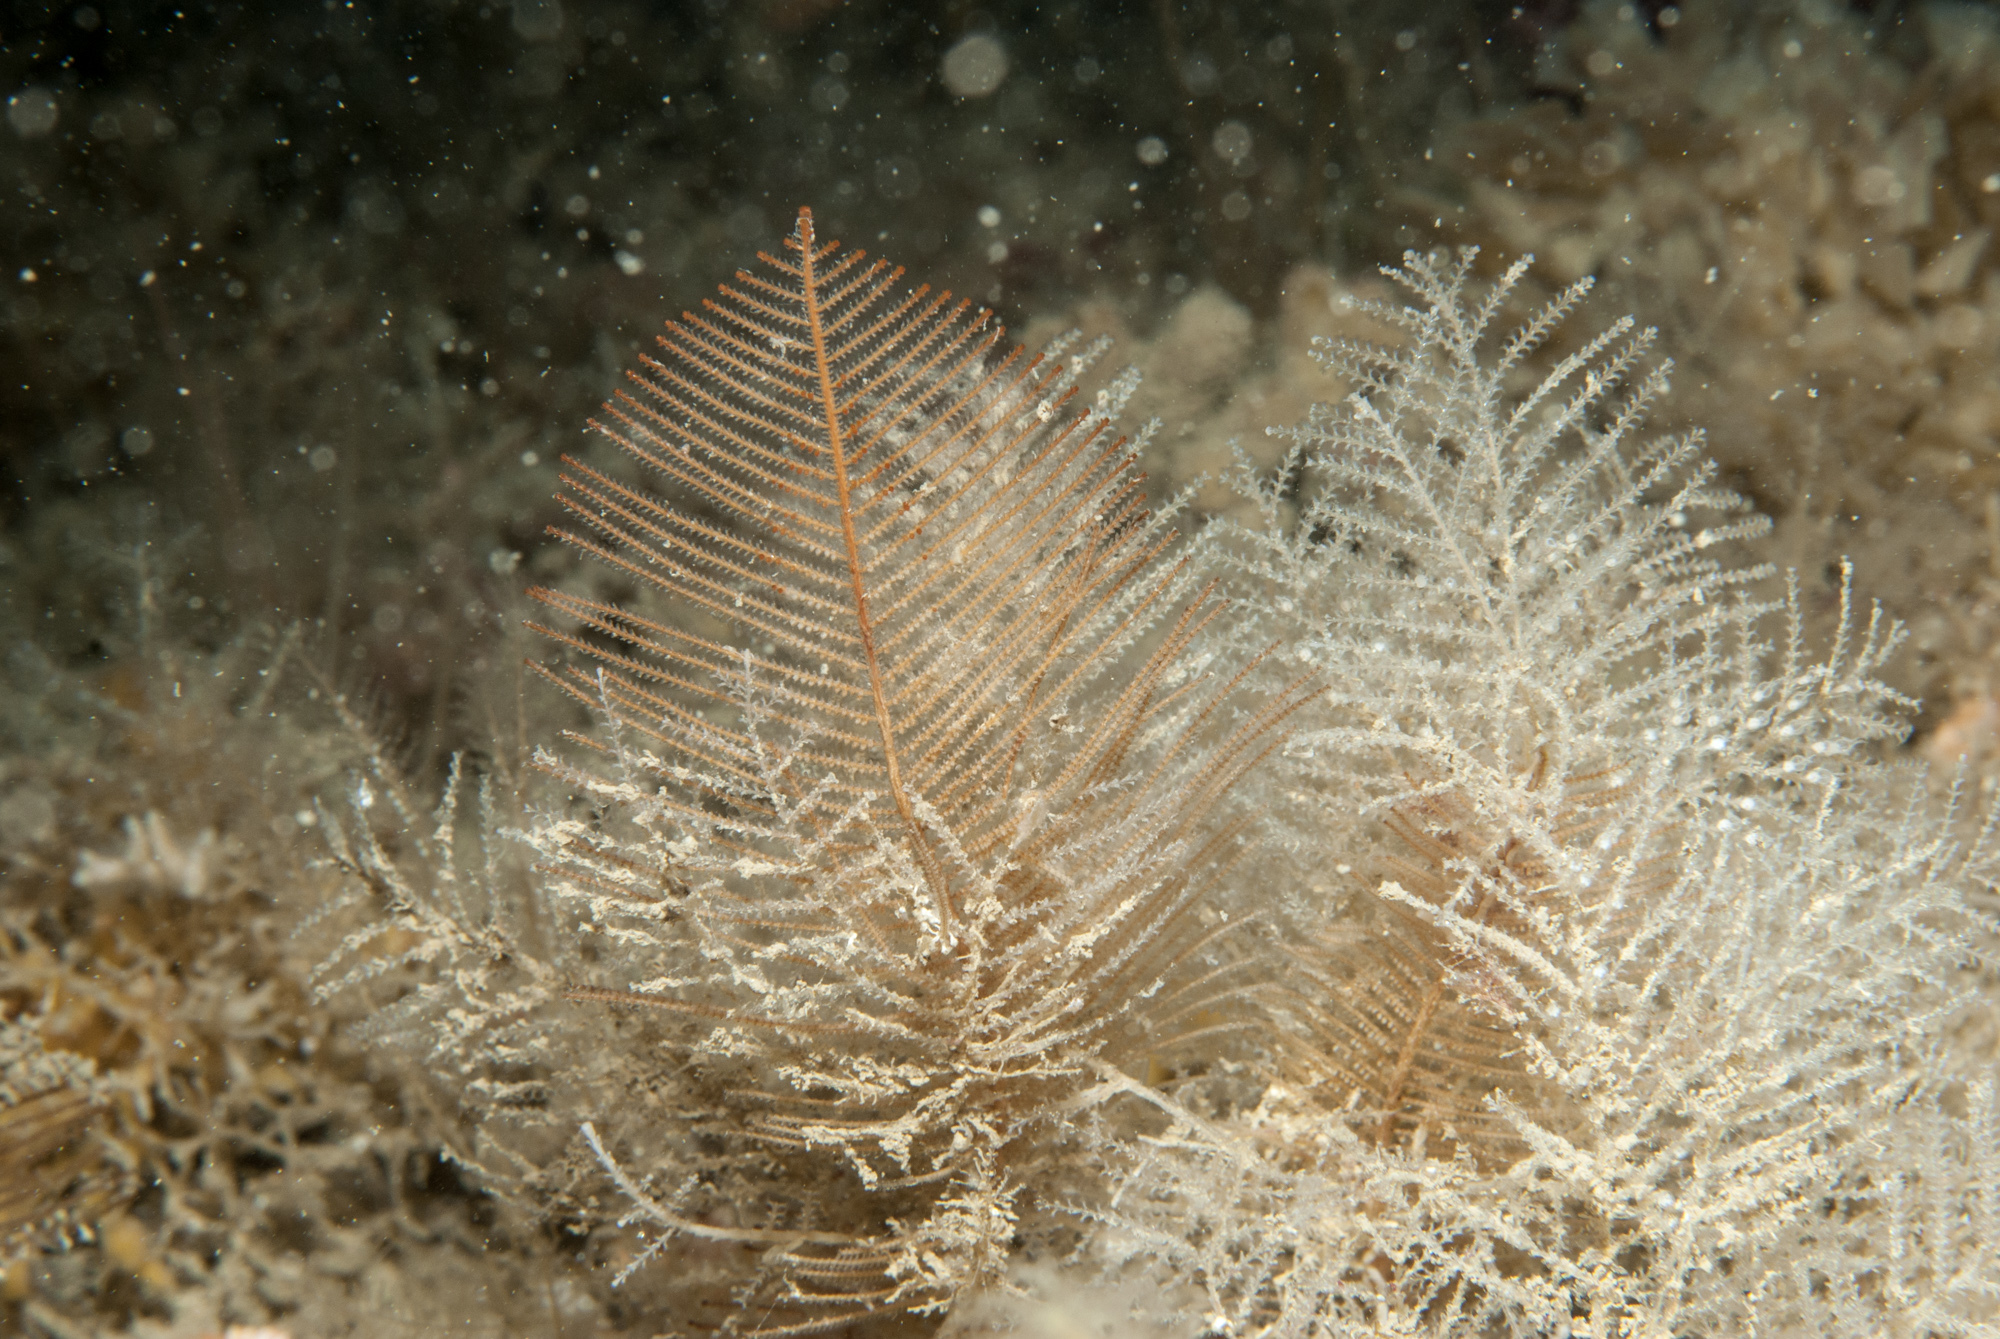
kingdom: Animalia
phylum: Cnidaria
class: Hydrozoa
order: Leptothecata
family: Sertulariidae
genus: Diphasia
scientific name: Diphasia fallax
